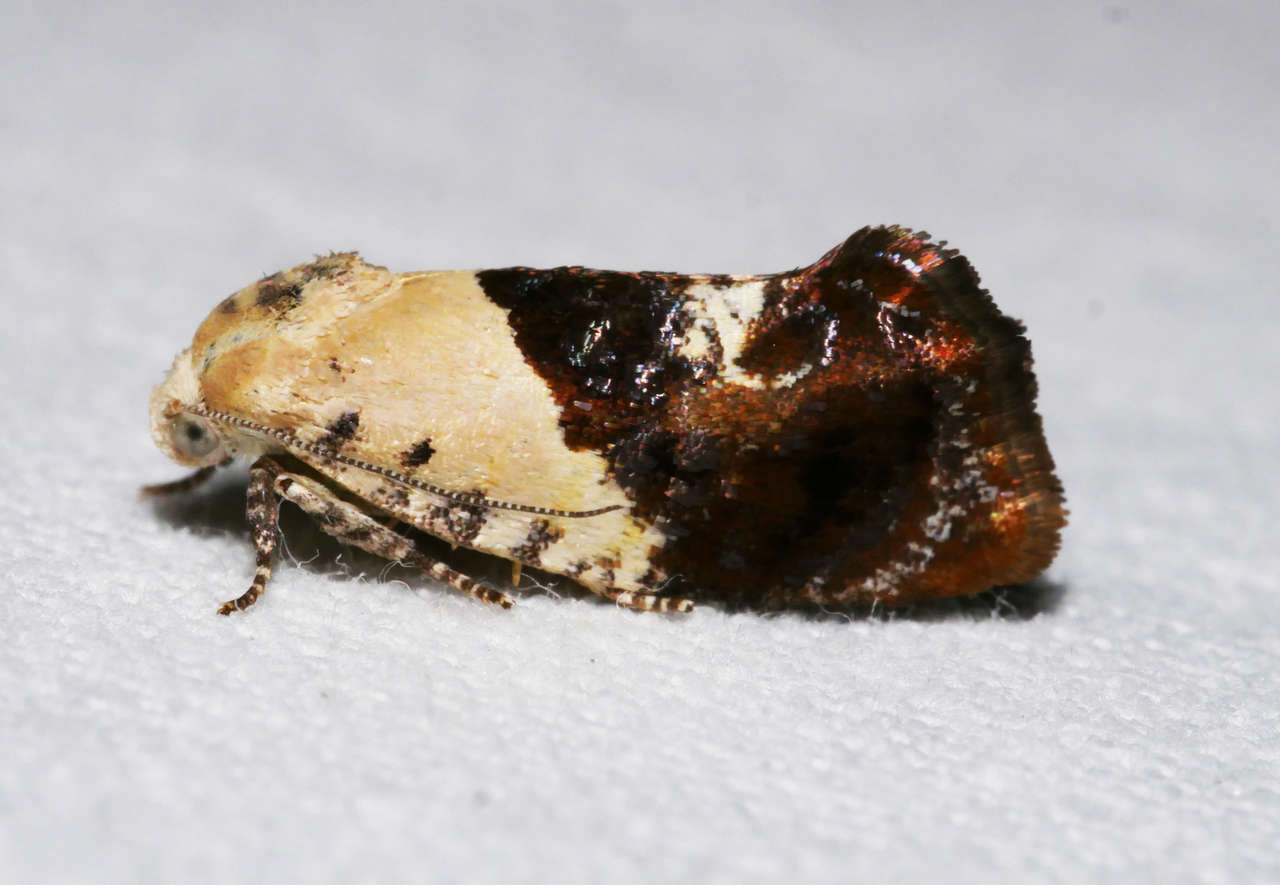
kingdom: Animalia
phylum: Arthropoda
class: Insecta
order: Lepidoptera
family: Depressariidae
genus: Hypertropha
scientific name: Hypertropha chlaenota
